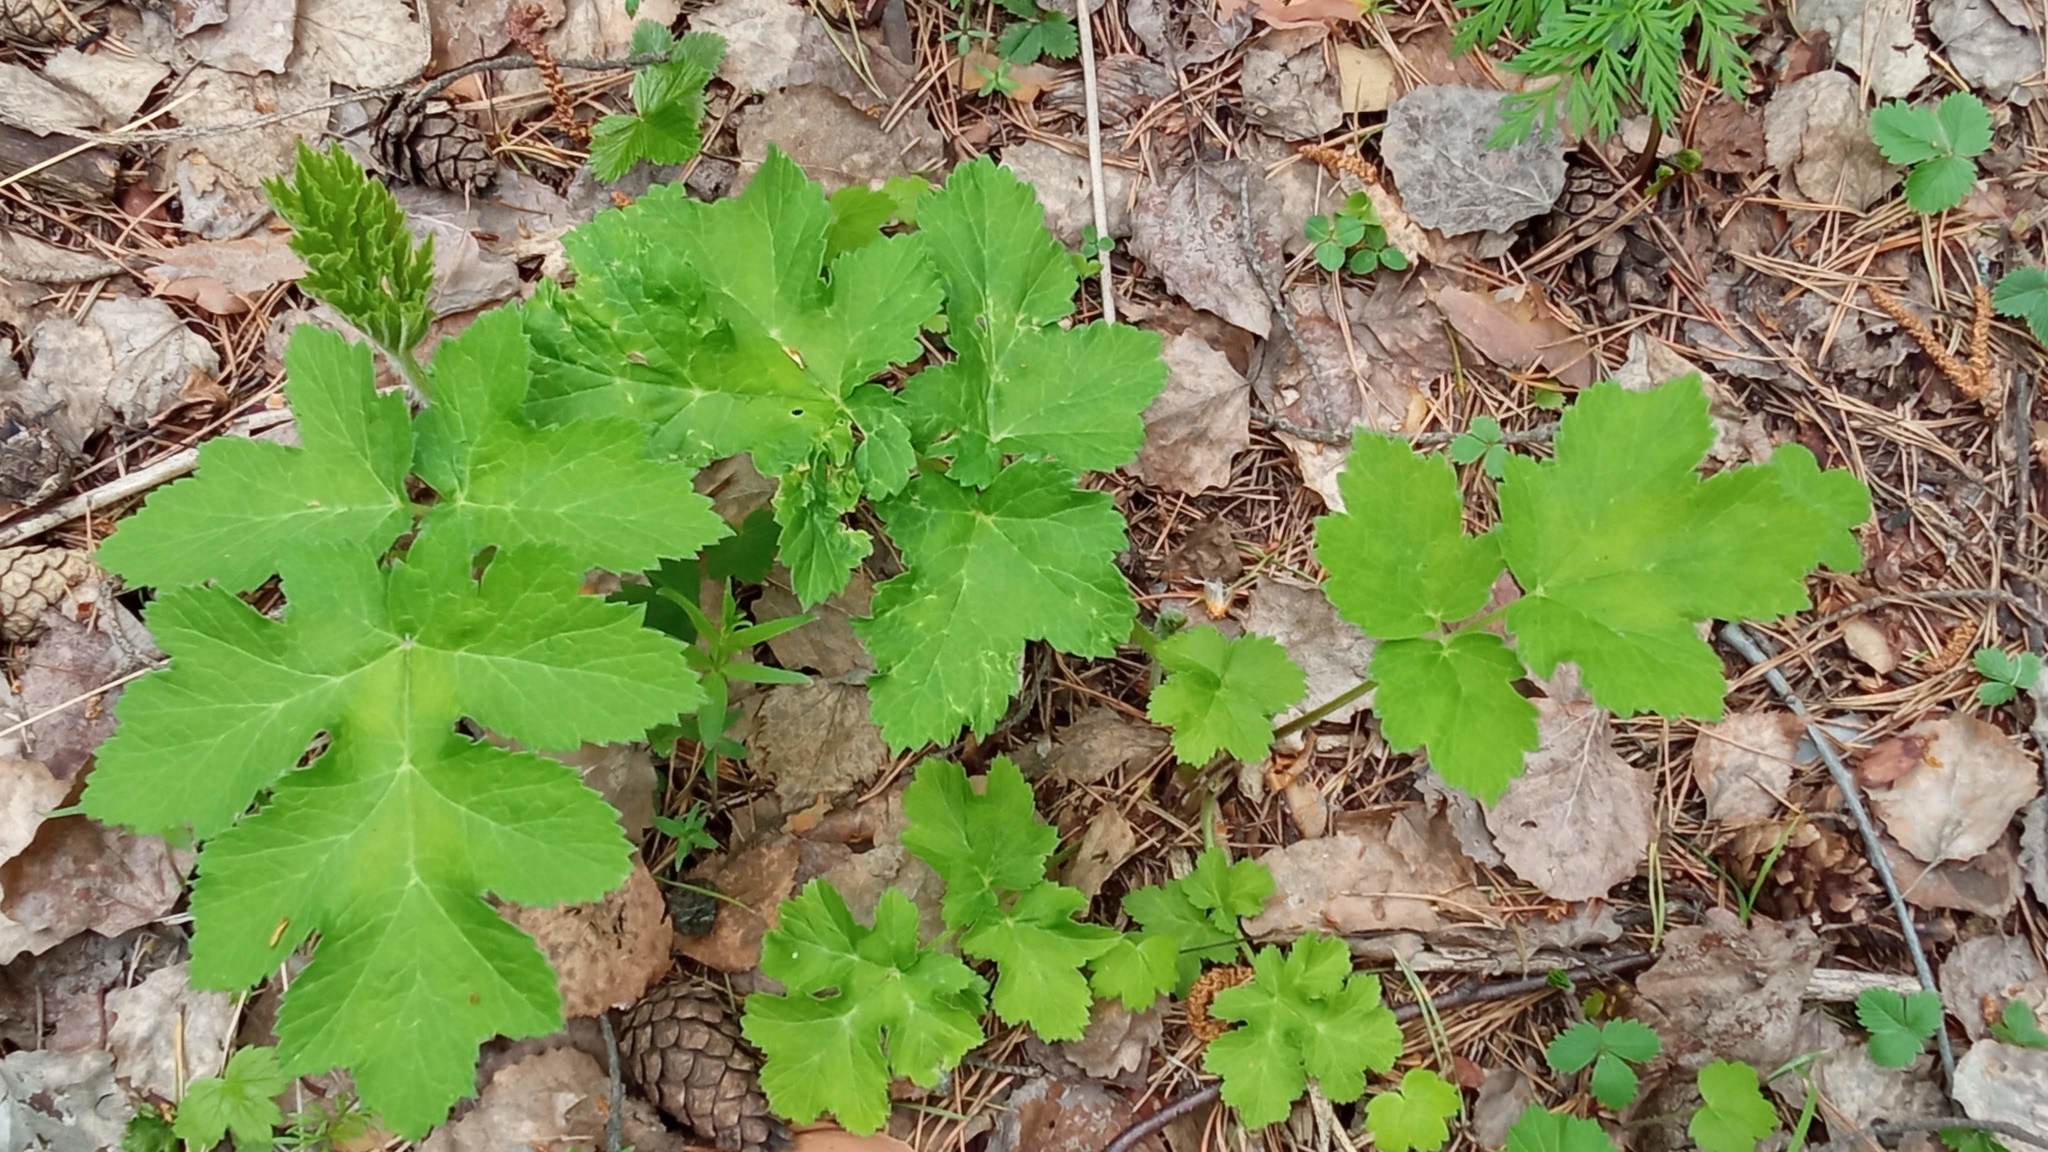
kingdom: Plantae
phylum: Tracheophyta
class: Magnoliopsida
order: Apiales
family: Apiaceae
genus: Heracleum
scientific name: Heracleum sphondylium
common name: Hogweed
